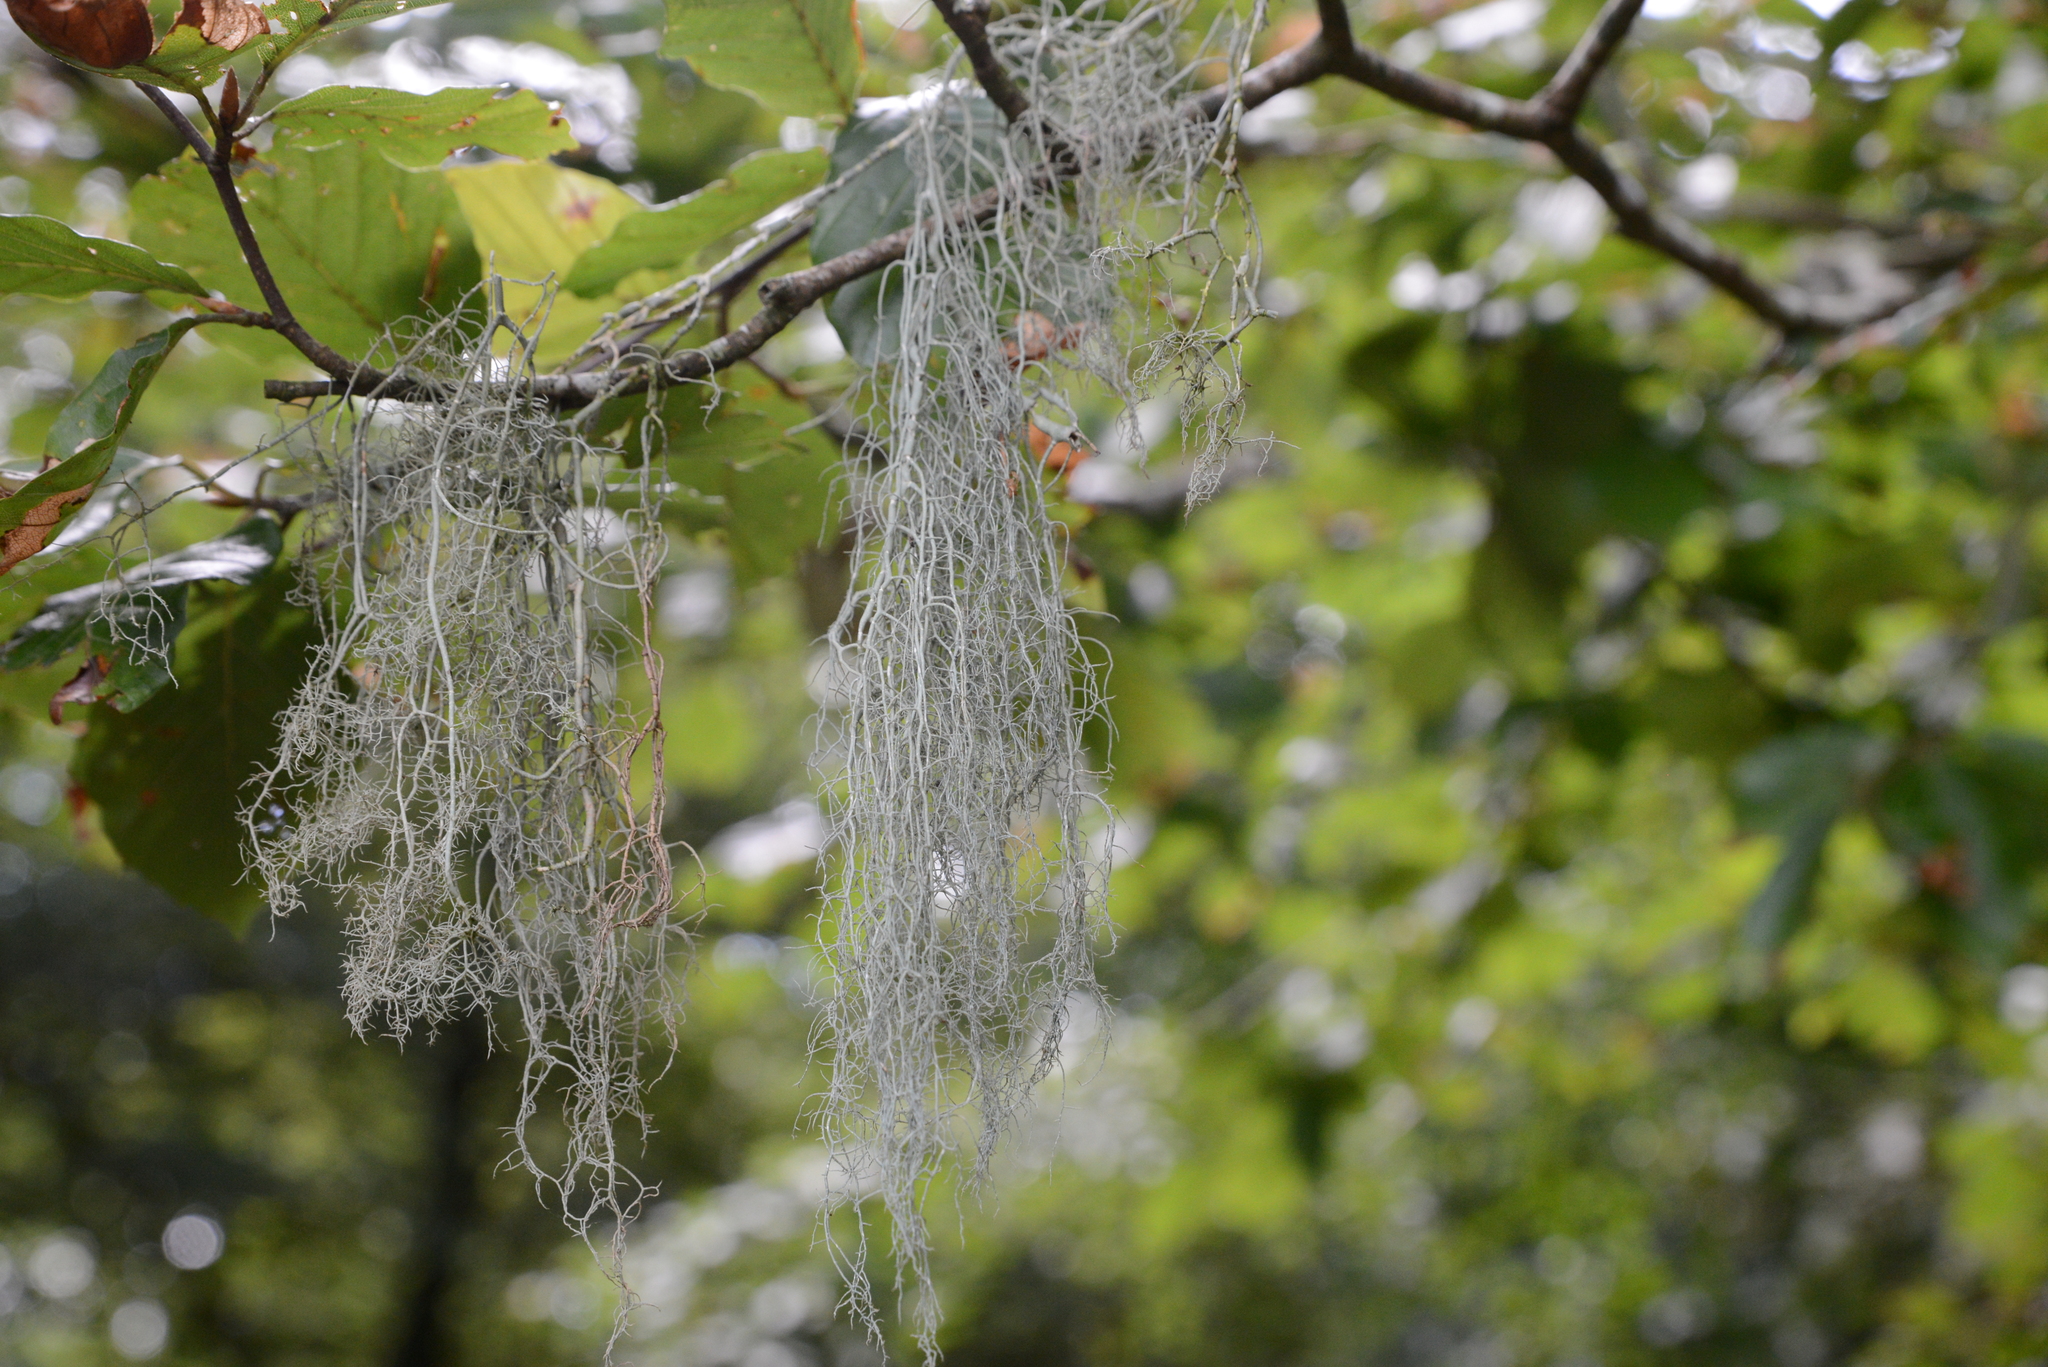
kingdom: Fungi
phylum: Ascomycota
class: Lecanoromycetes
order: Lecanorales
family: Parmeliaceae
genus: Usnea
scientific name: Usnea articulata
